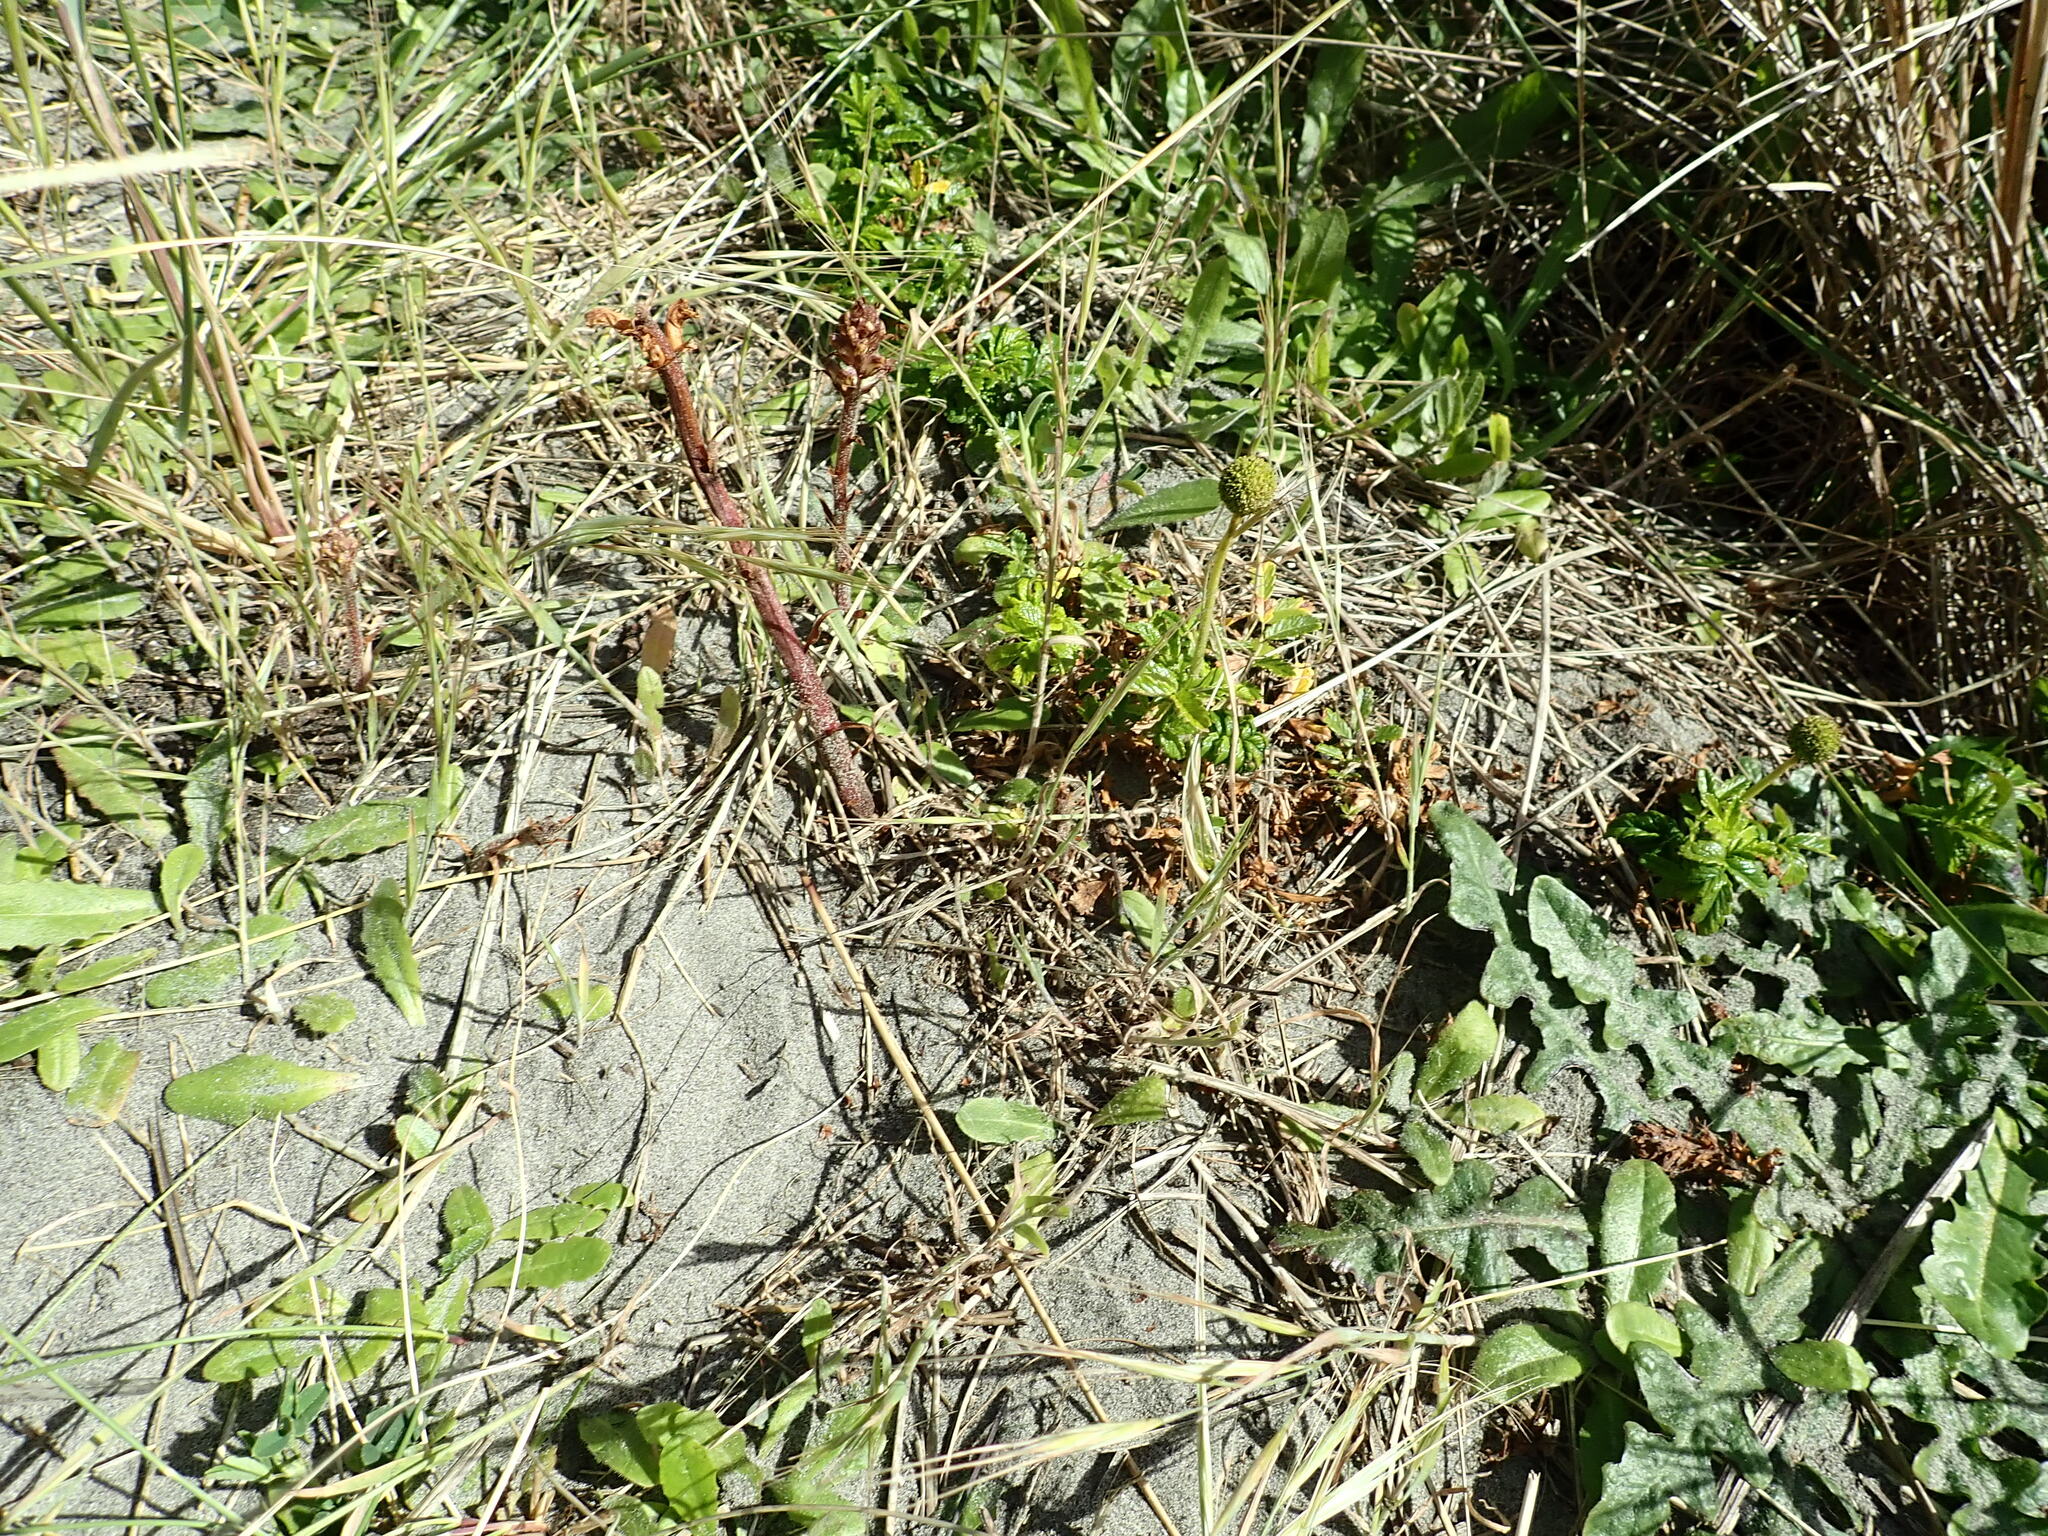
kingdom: Plantae
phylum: Tracheophyta
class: Magnoliopsida
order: Lamiales
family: Orobanchaceae
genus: Orobanche
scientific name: Orobanche minor
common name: Common broomrape
